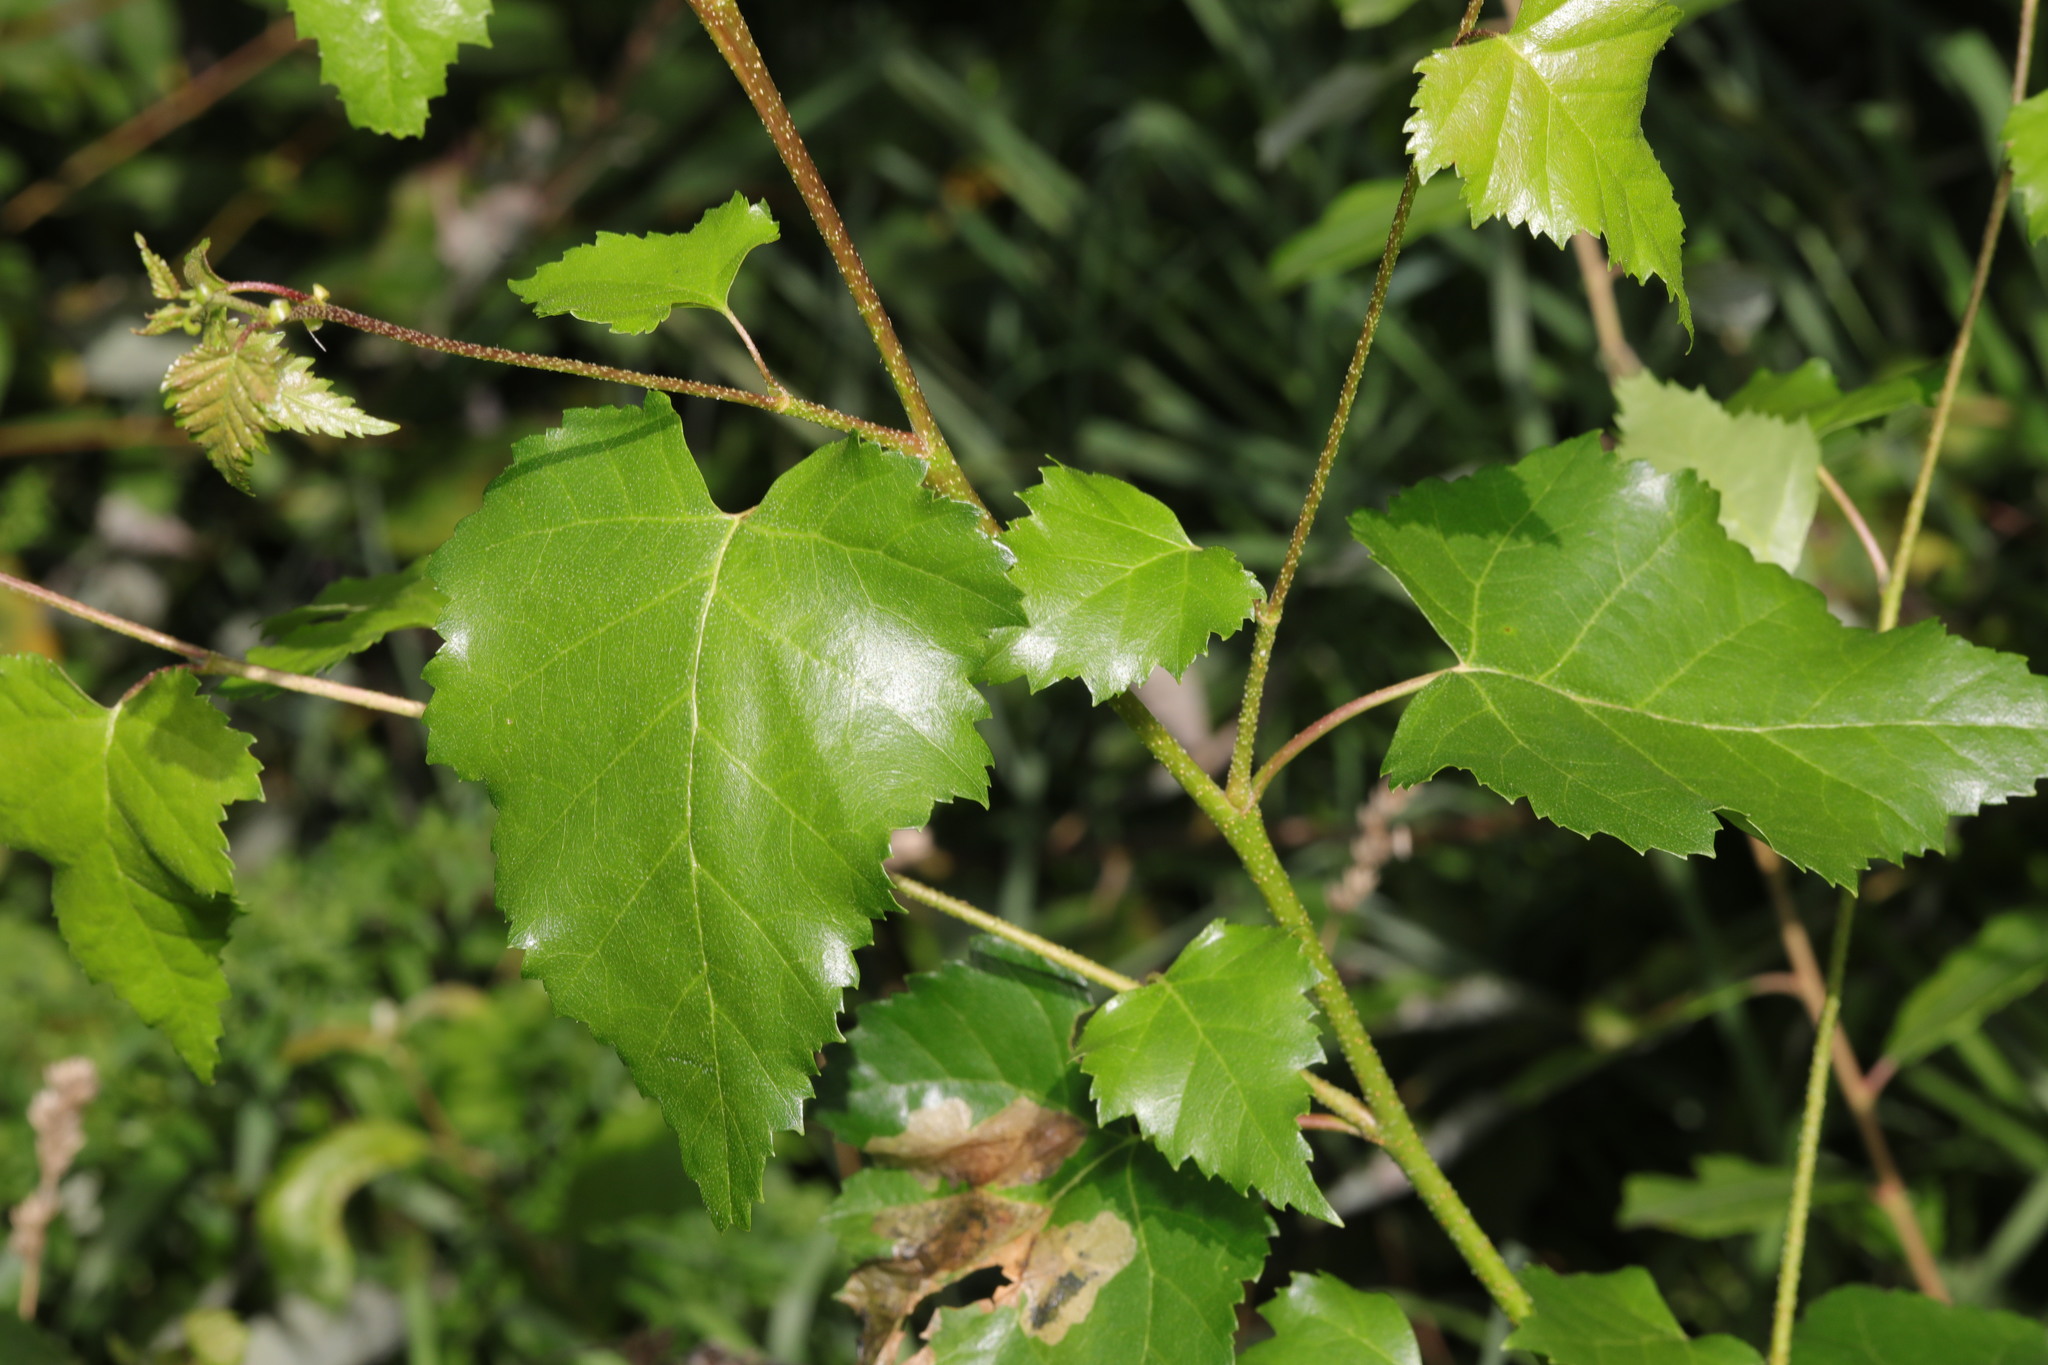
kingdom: Plantae
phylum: Tracheophyta
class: Magnoliopsida
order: Fagales
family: Betulaceae
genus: Betula
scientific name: Betula pendula
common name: Silver birch
